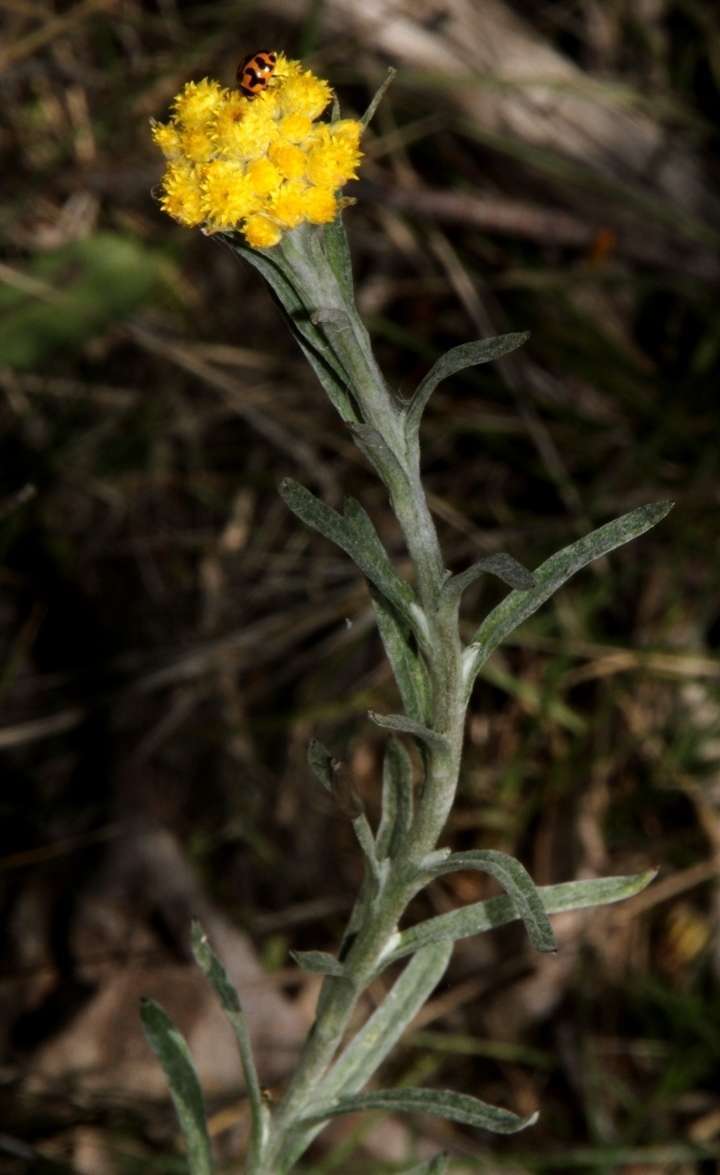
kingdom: Animalia
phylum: Arthropoda
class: Insecta
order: Coleoptera
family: Coccinellidae
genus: Coccinella
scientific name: Coccinella transversalis
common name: Transverse lady beetle
